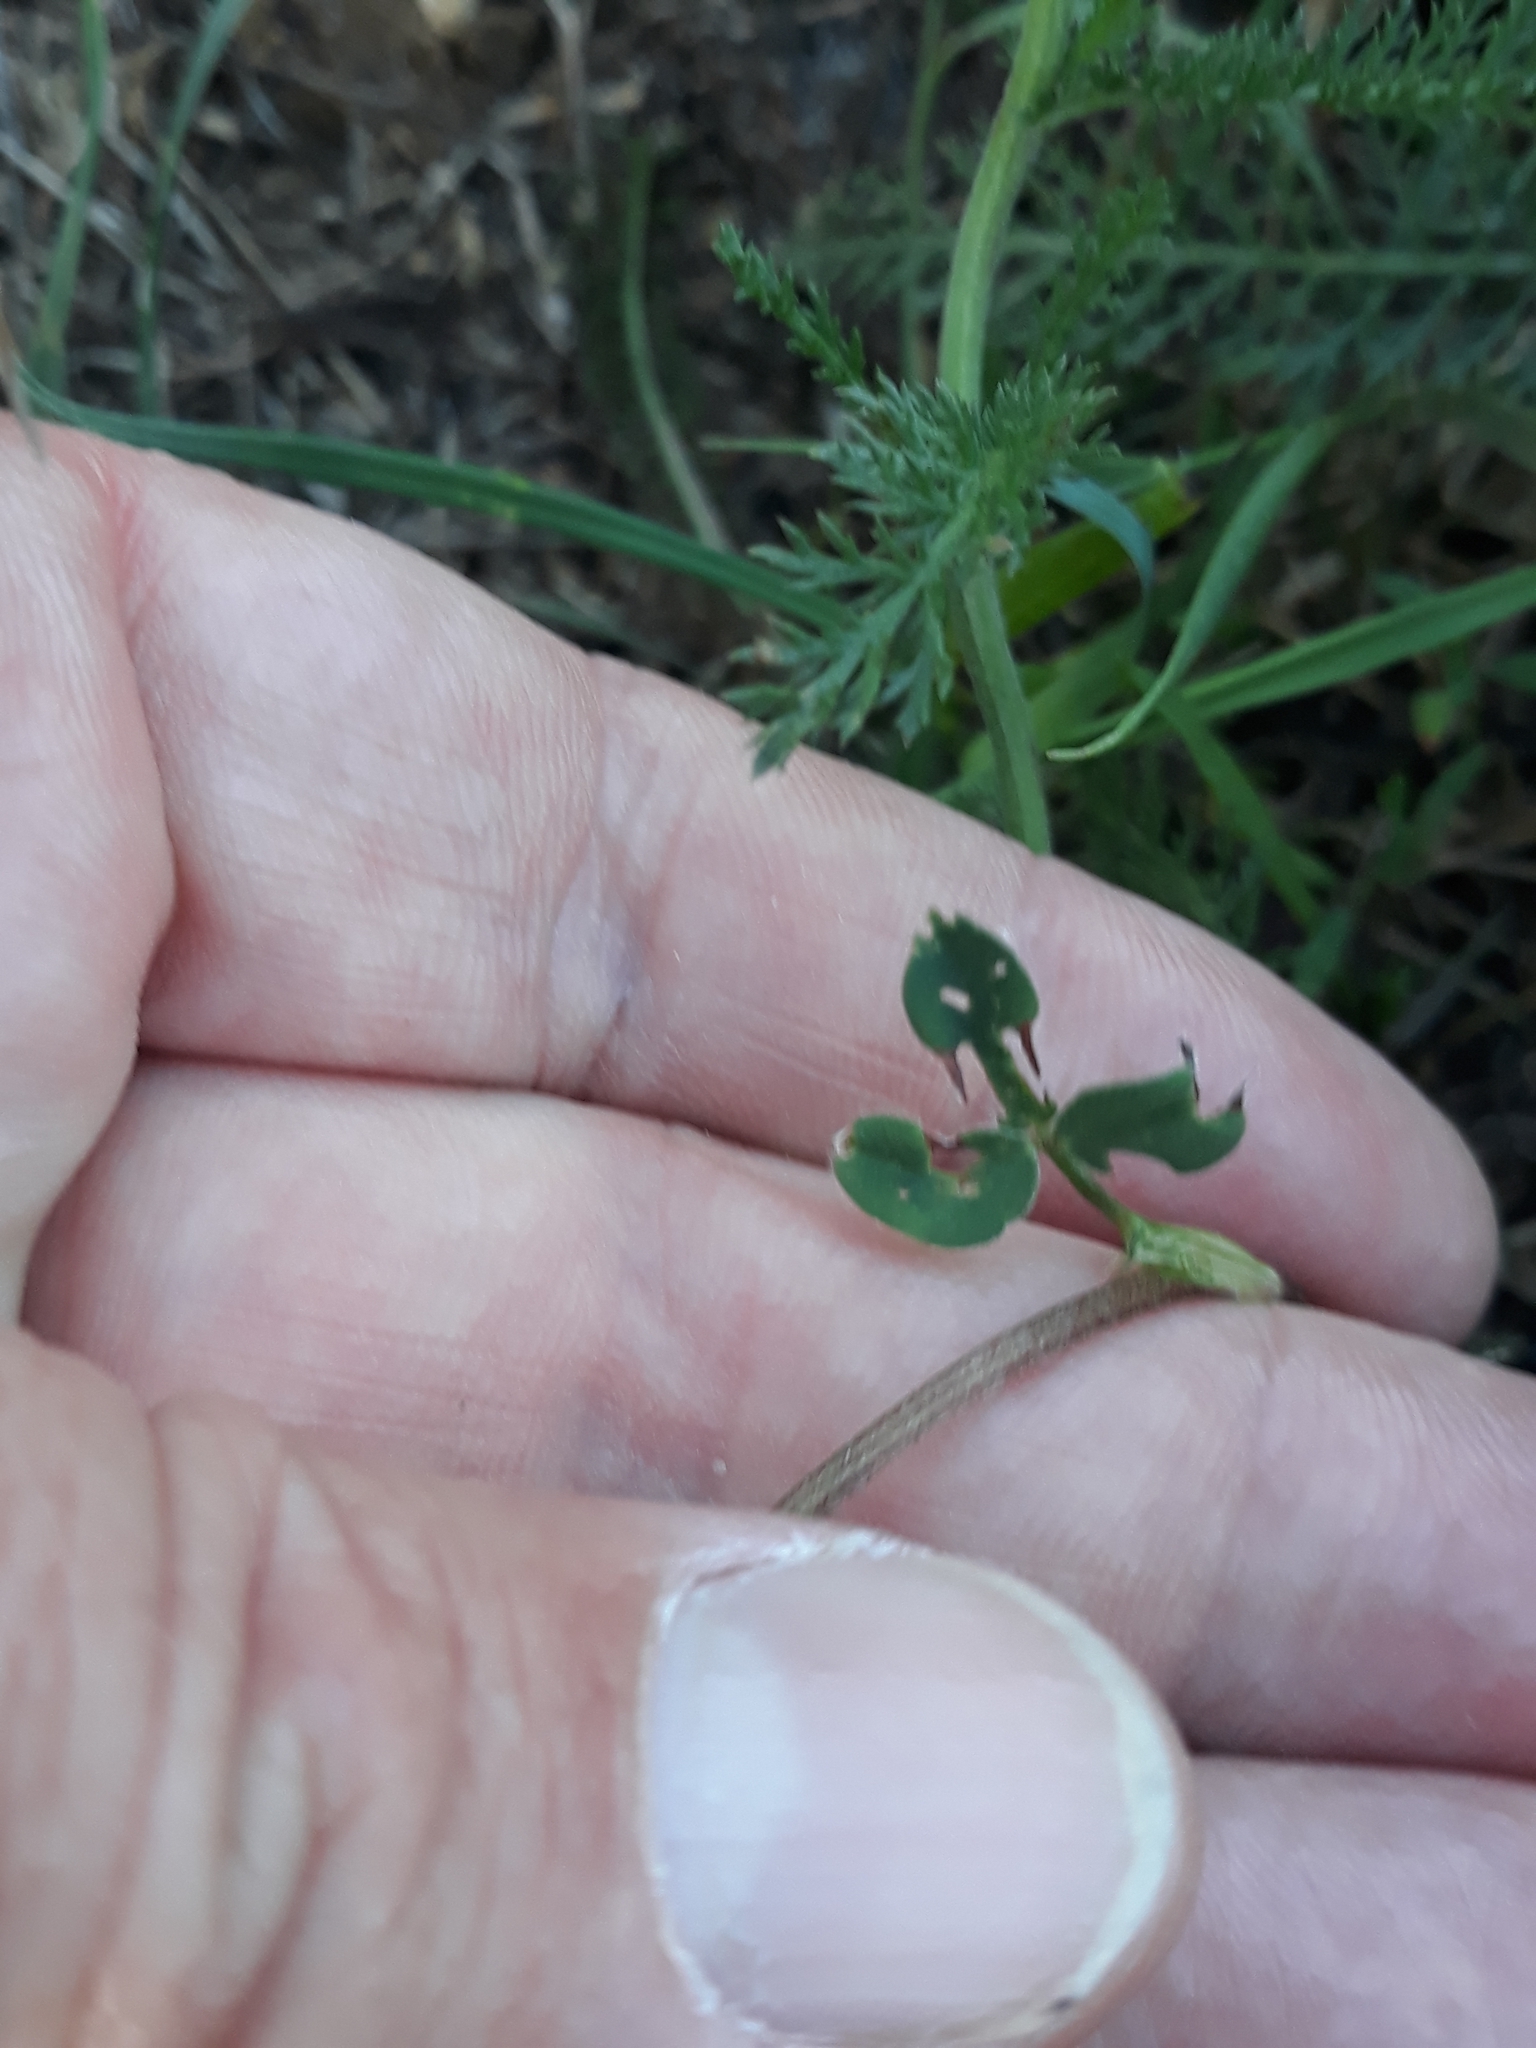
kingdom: Plantae
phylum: Tracheophyta
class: Magnoliopsida
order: Fabales
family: Fabaceae
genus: Trifolium
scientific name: Trifolium pratense
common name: Red clover
